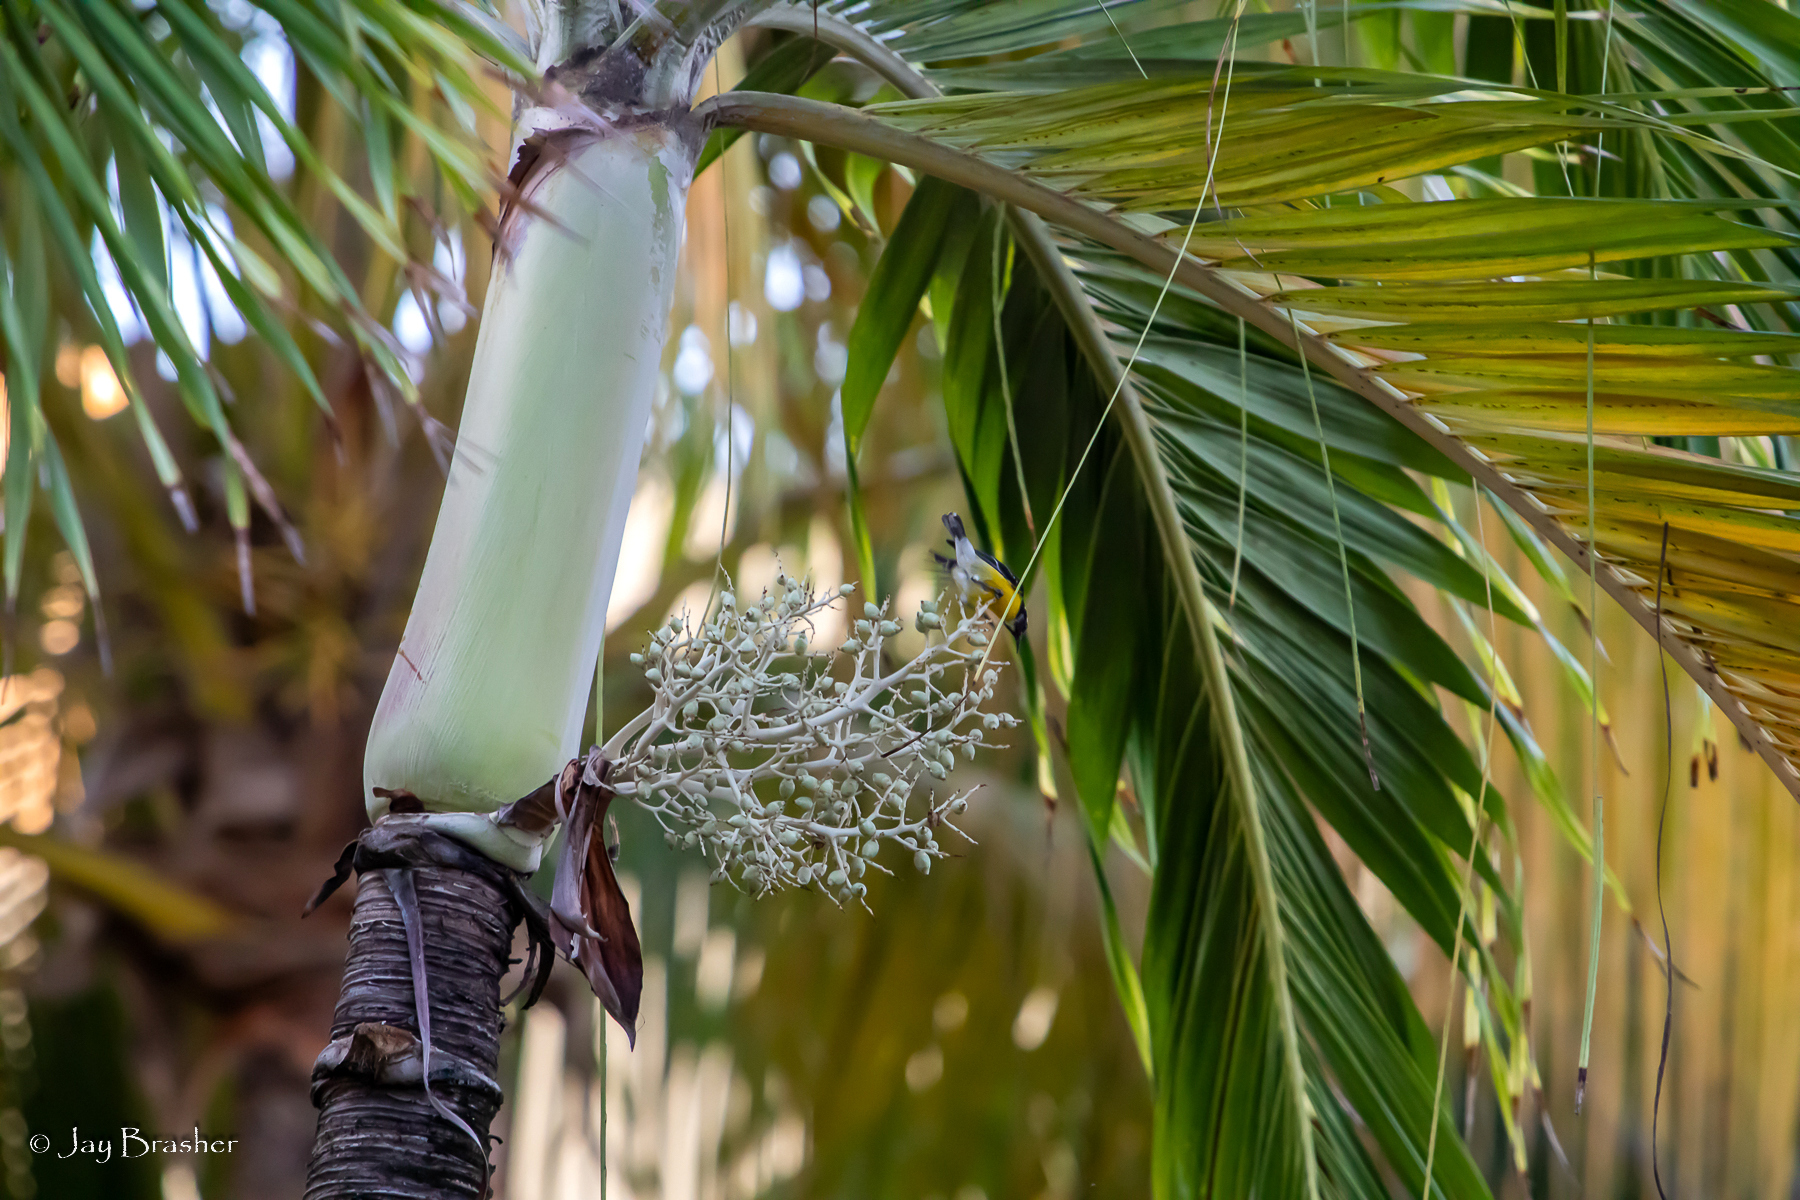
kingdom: Plantae
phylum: Tracheophyta
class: Liliopsida
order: Arecales
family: Arecaceae
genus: Adonidia
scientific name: Adonidia merrillii
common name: Manila palm
